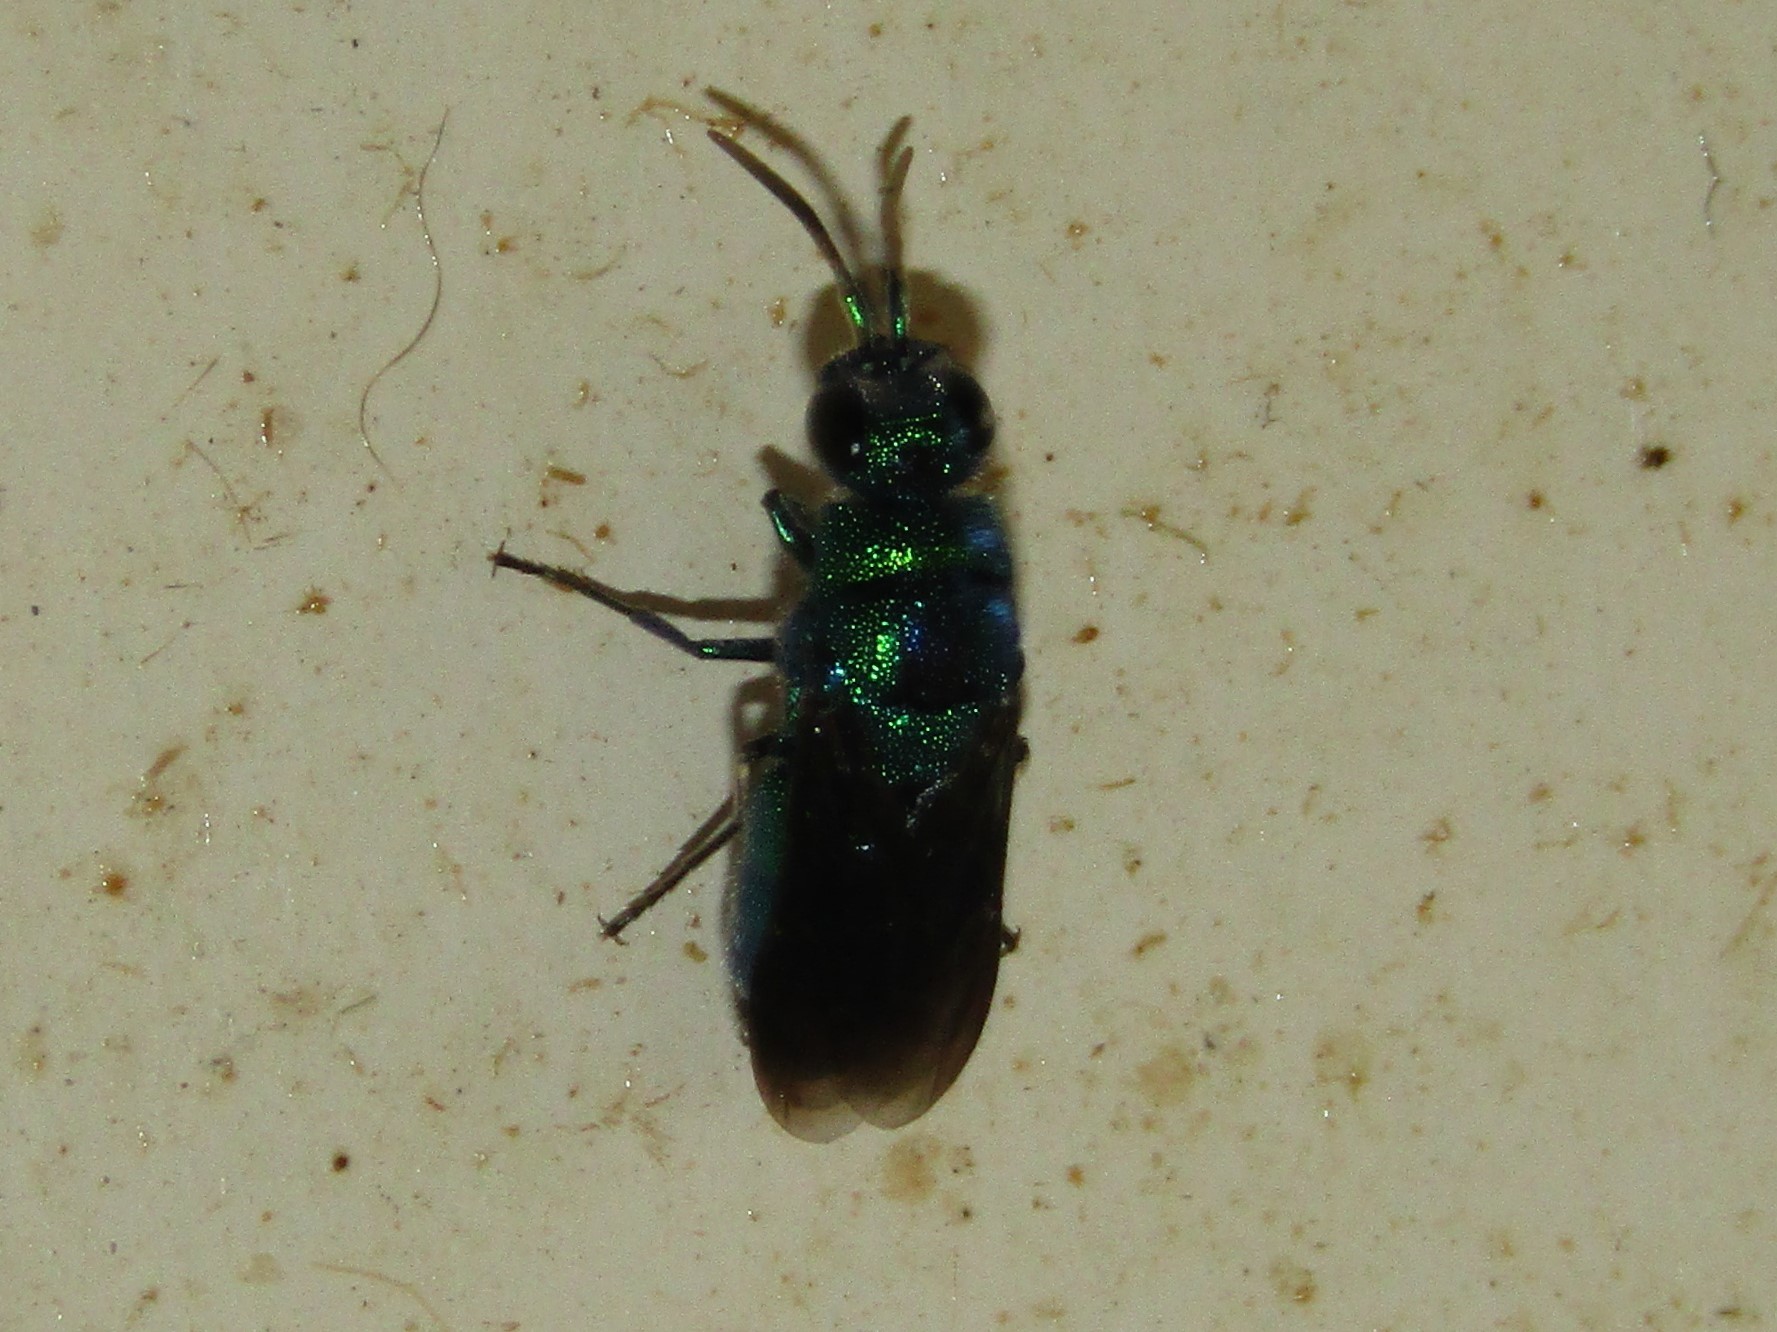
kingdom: Animalia
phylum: Arthropoda
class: Insecta
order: Hymenoptera
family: Chrysididae
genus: Chrysis
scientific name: Chrysis angolensis
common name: Cuckoo wasp
